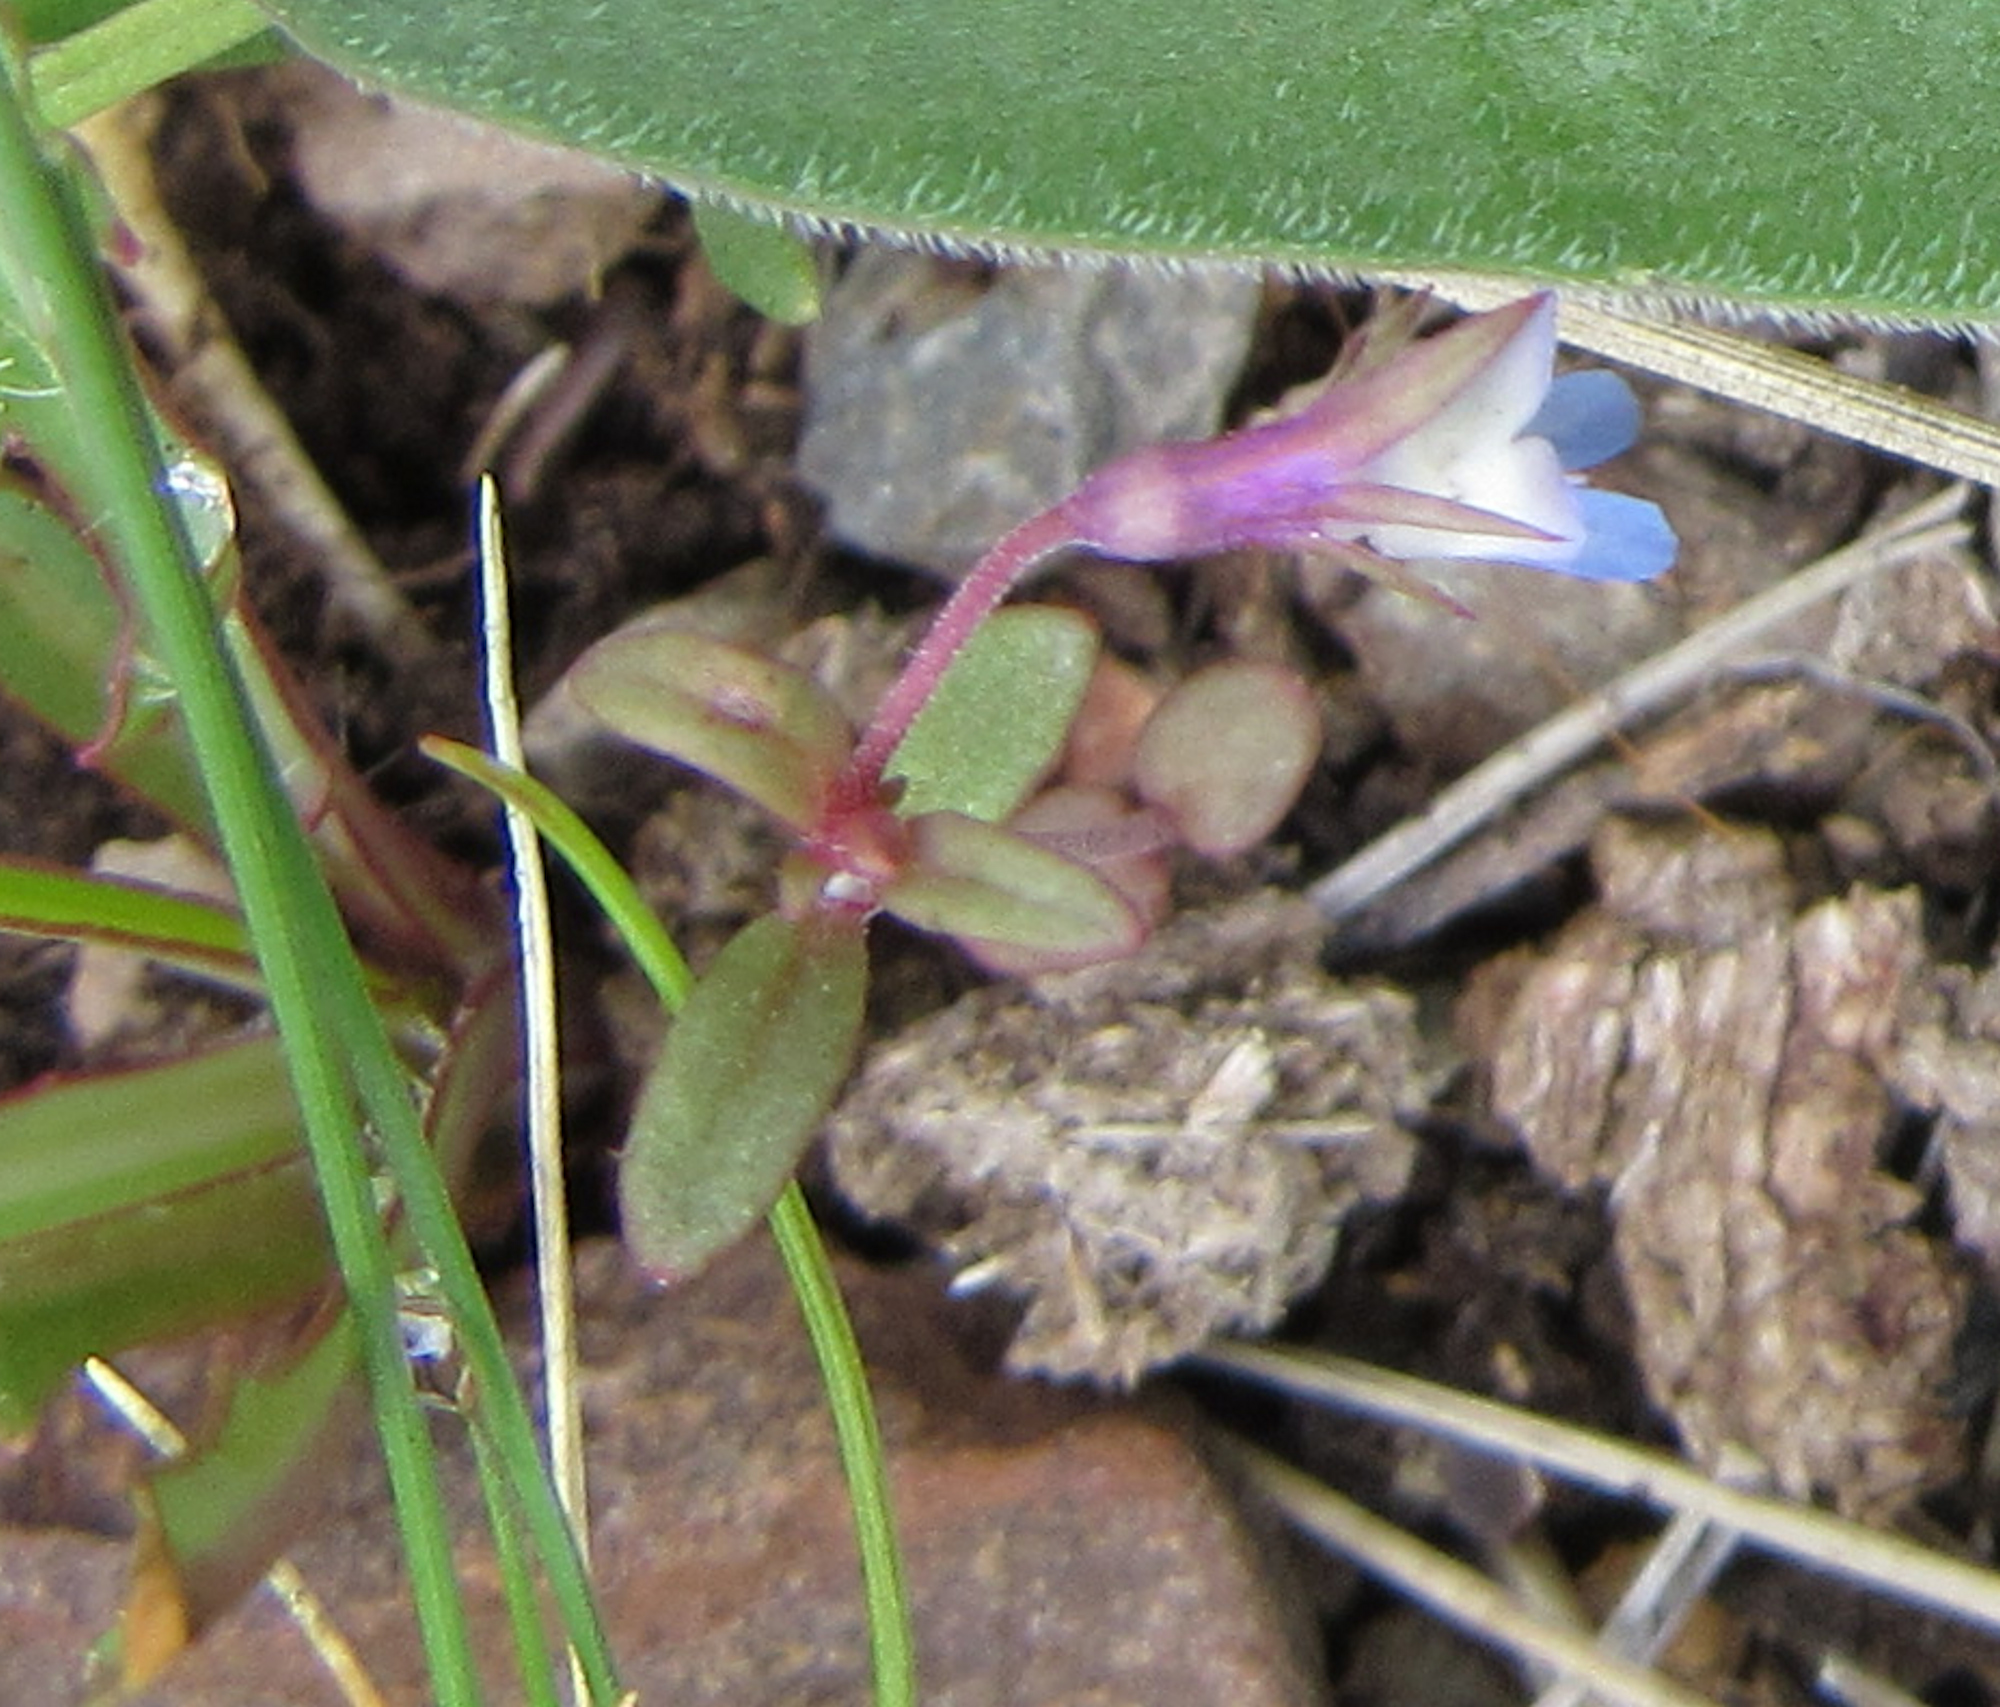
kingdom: Plantae
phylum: Tracheophyta
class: Magnoliopsida
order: Lamiales
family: Plantaginaceae
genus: Collinsia
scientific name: Collinsia parviflora
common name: Blue-lips
